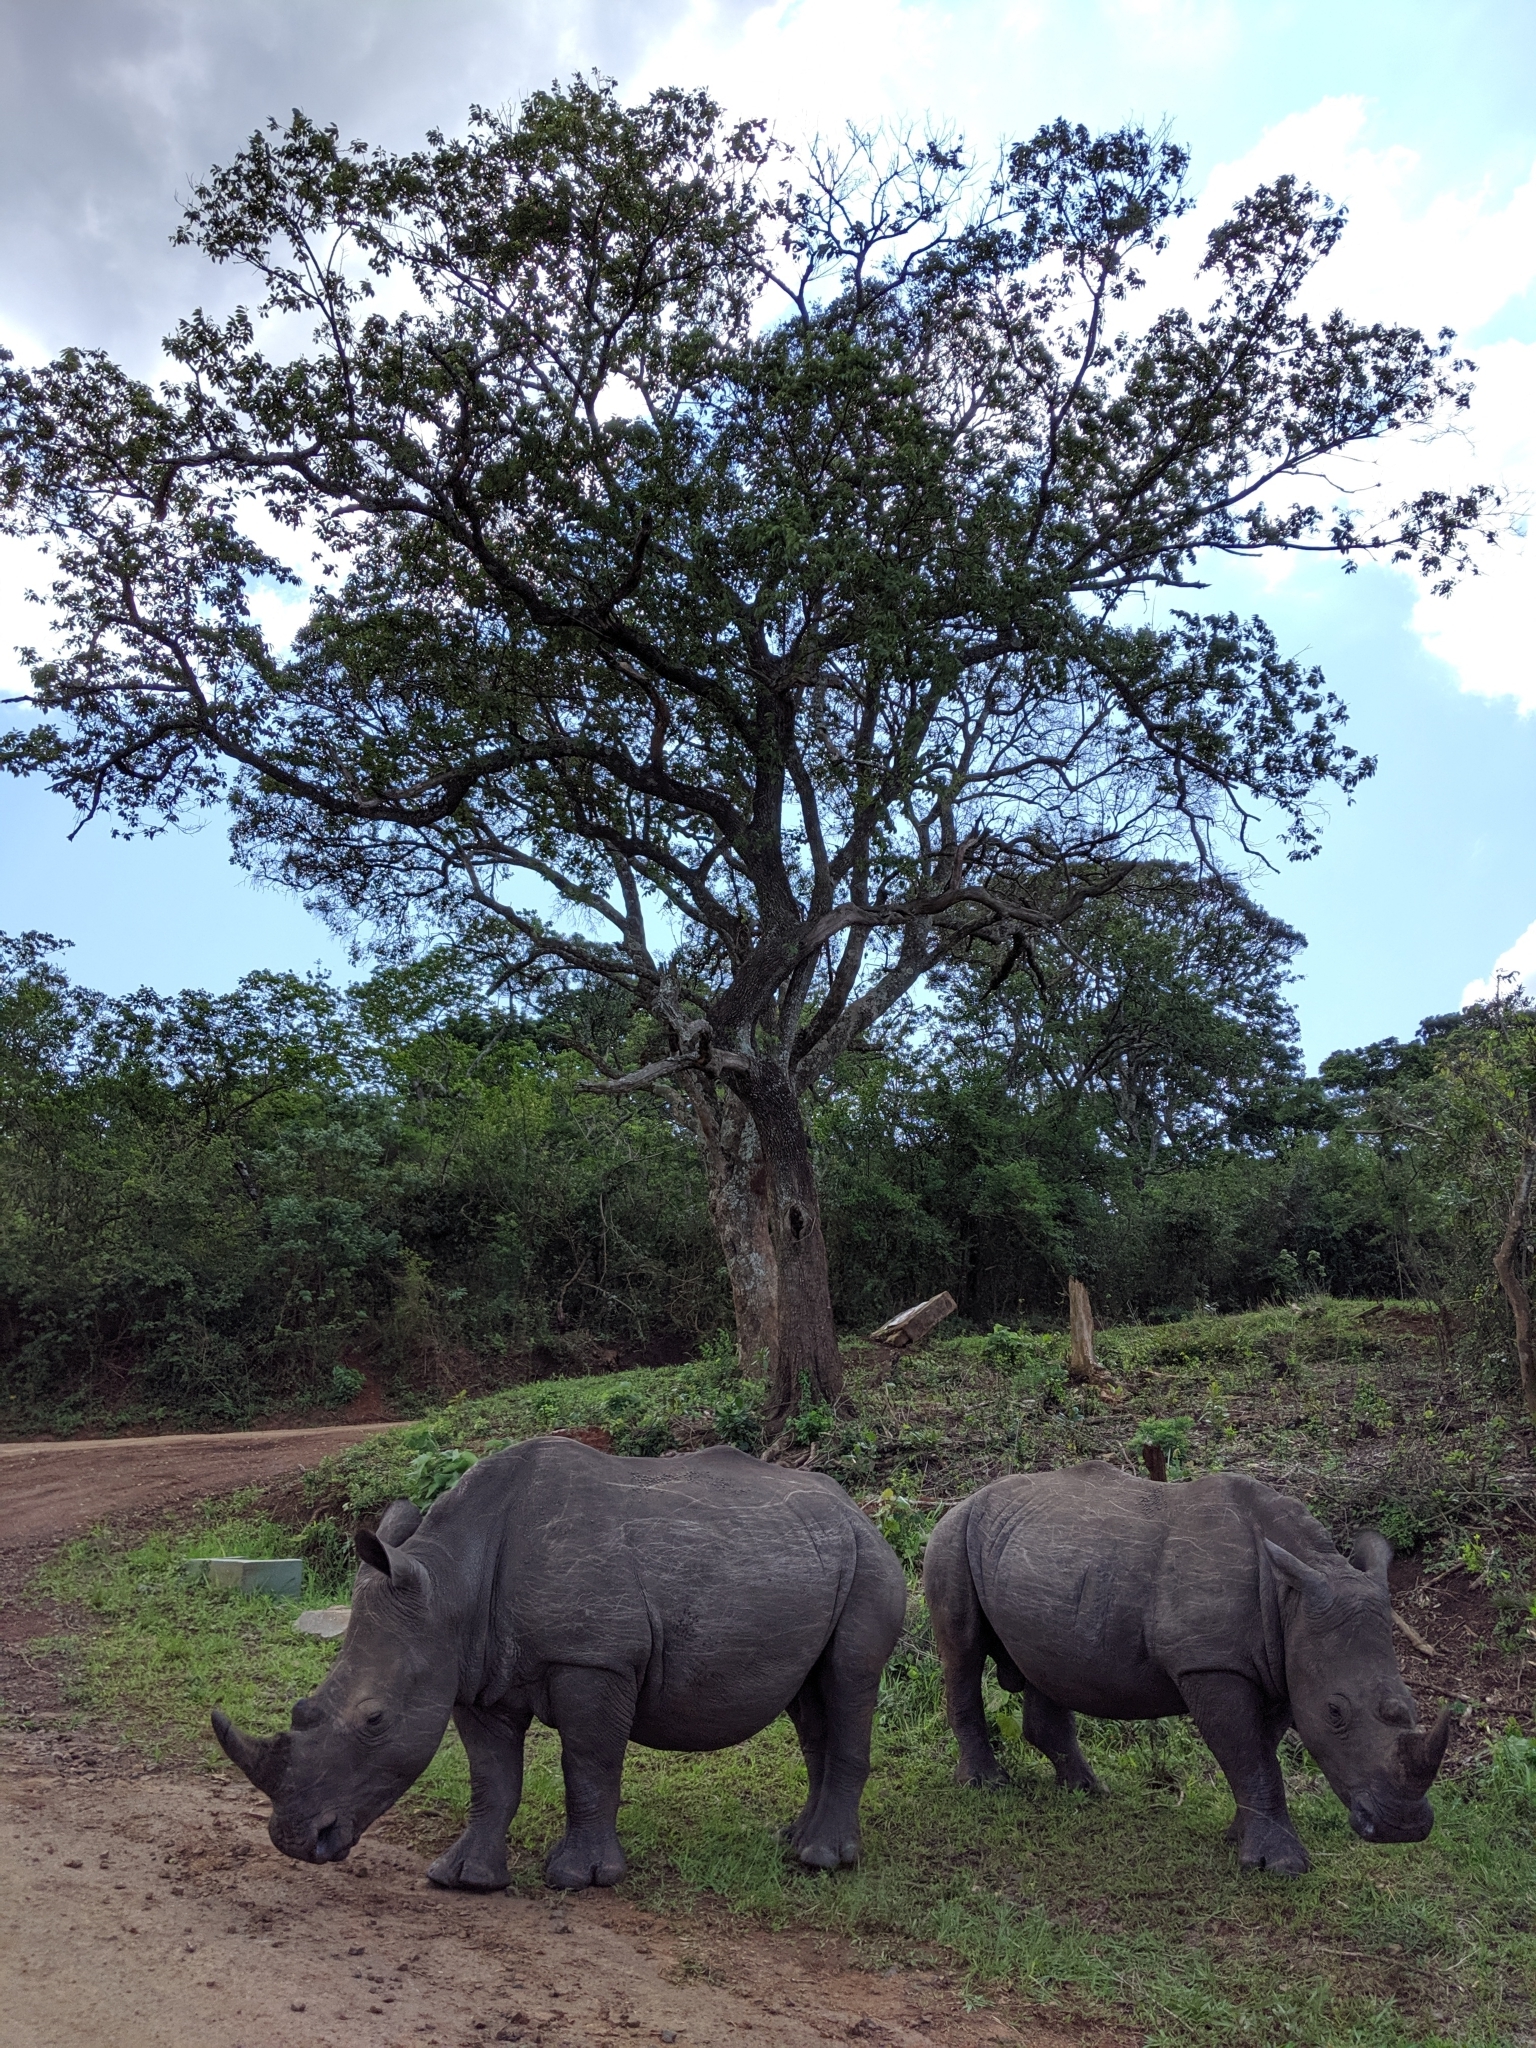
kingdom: Animalia
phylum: Chordata
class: Mammalia
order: Perissodactyla
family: Rhinocerotidae
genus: Ceratotherium
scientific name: Ceratotherium simum
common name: White rhinoceros
